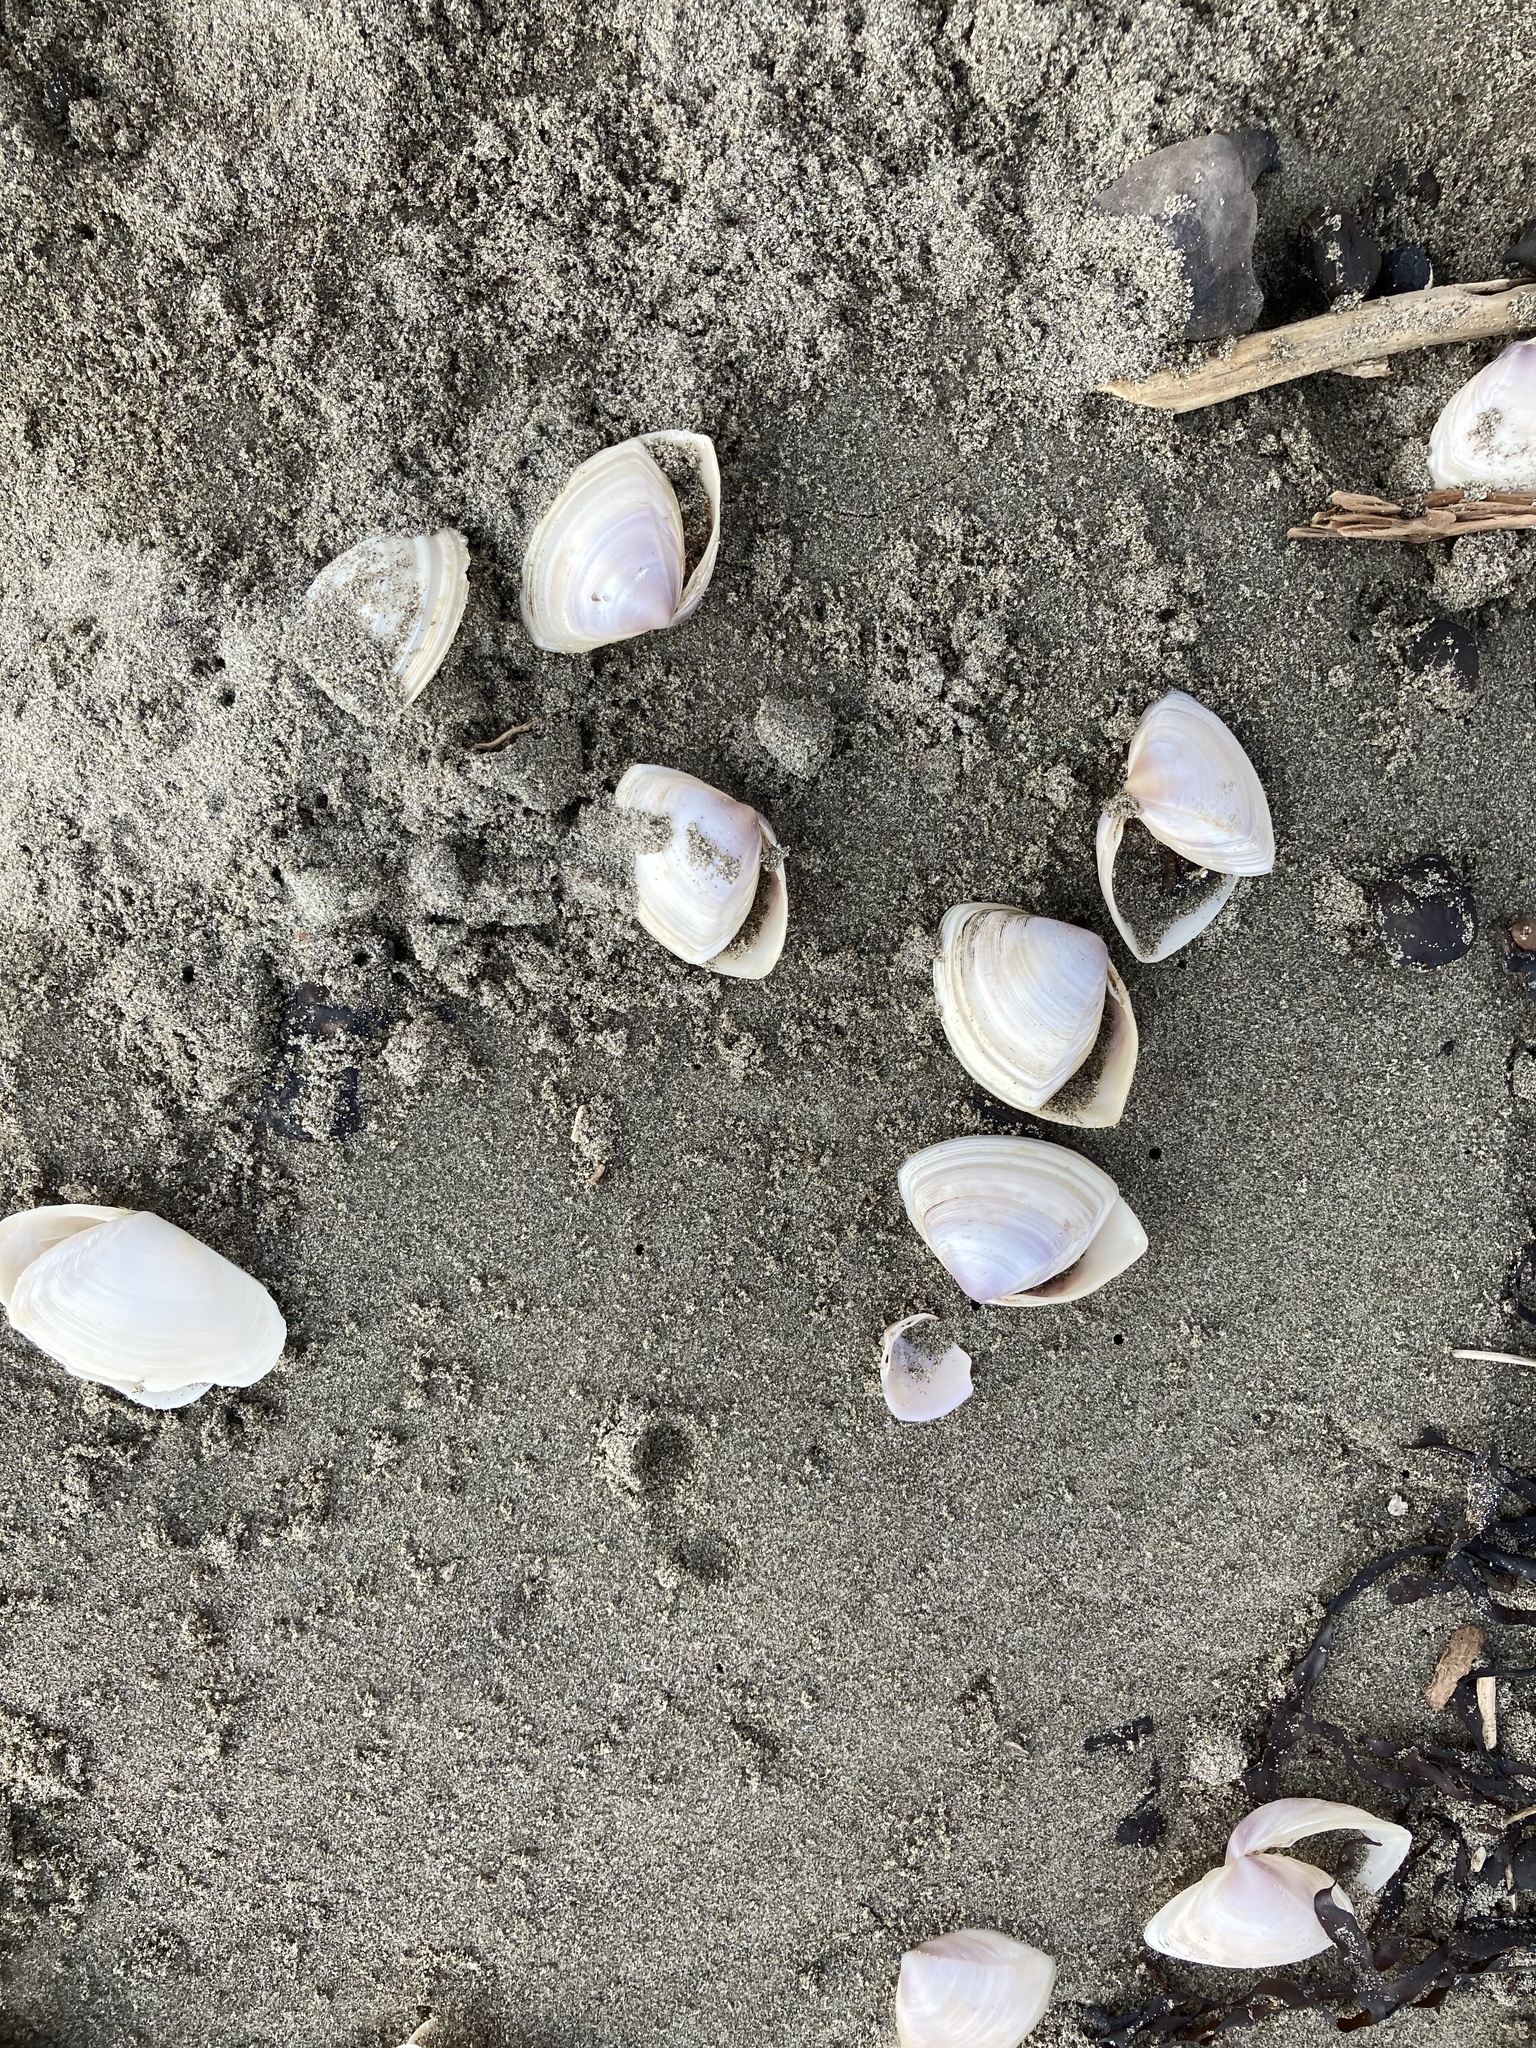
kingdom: Animalia
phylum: Mollusca
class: Bivalvia
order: Venerida
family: Mactridae
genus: Crassula
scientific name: Crassula aequilatera
